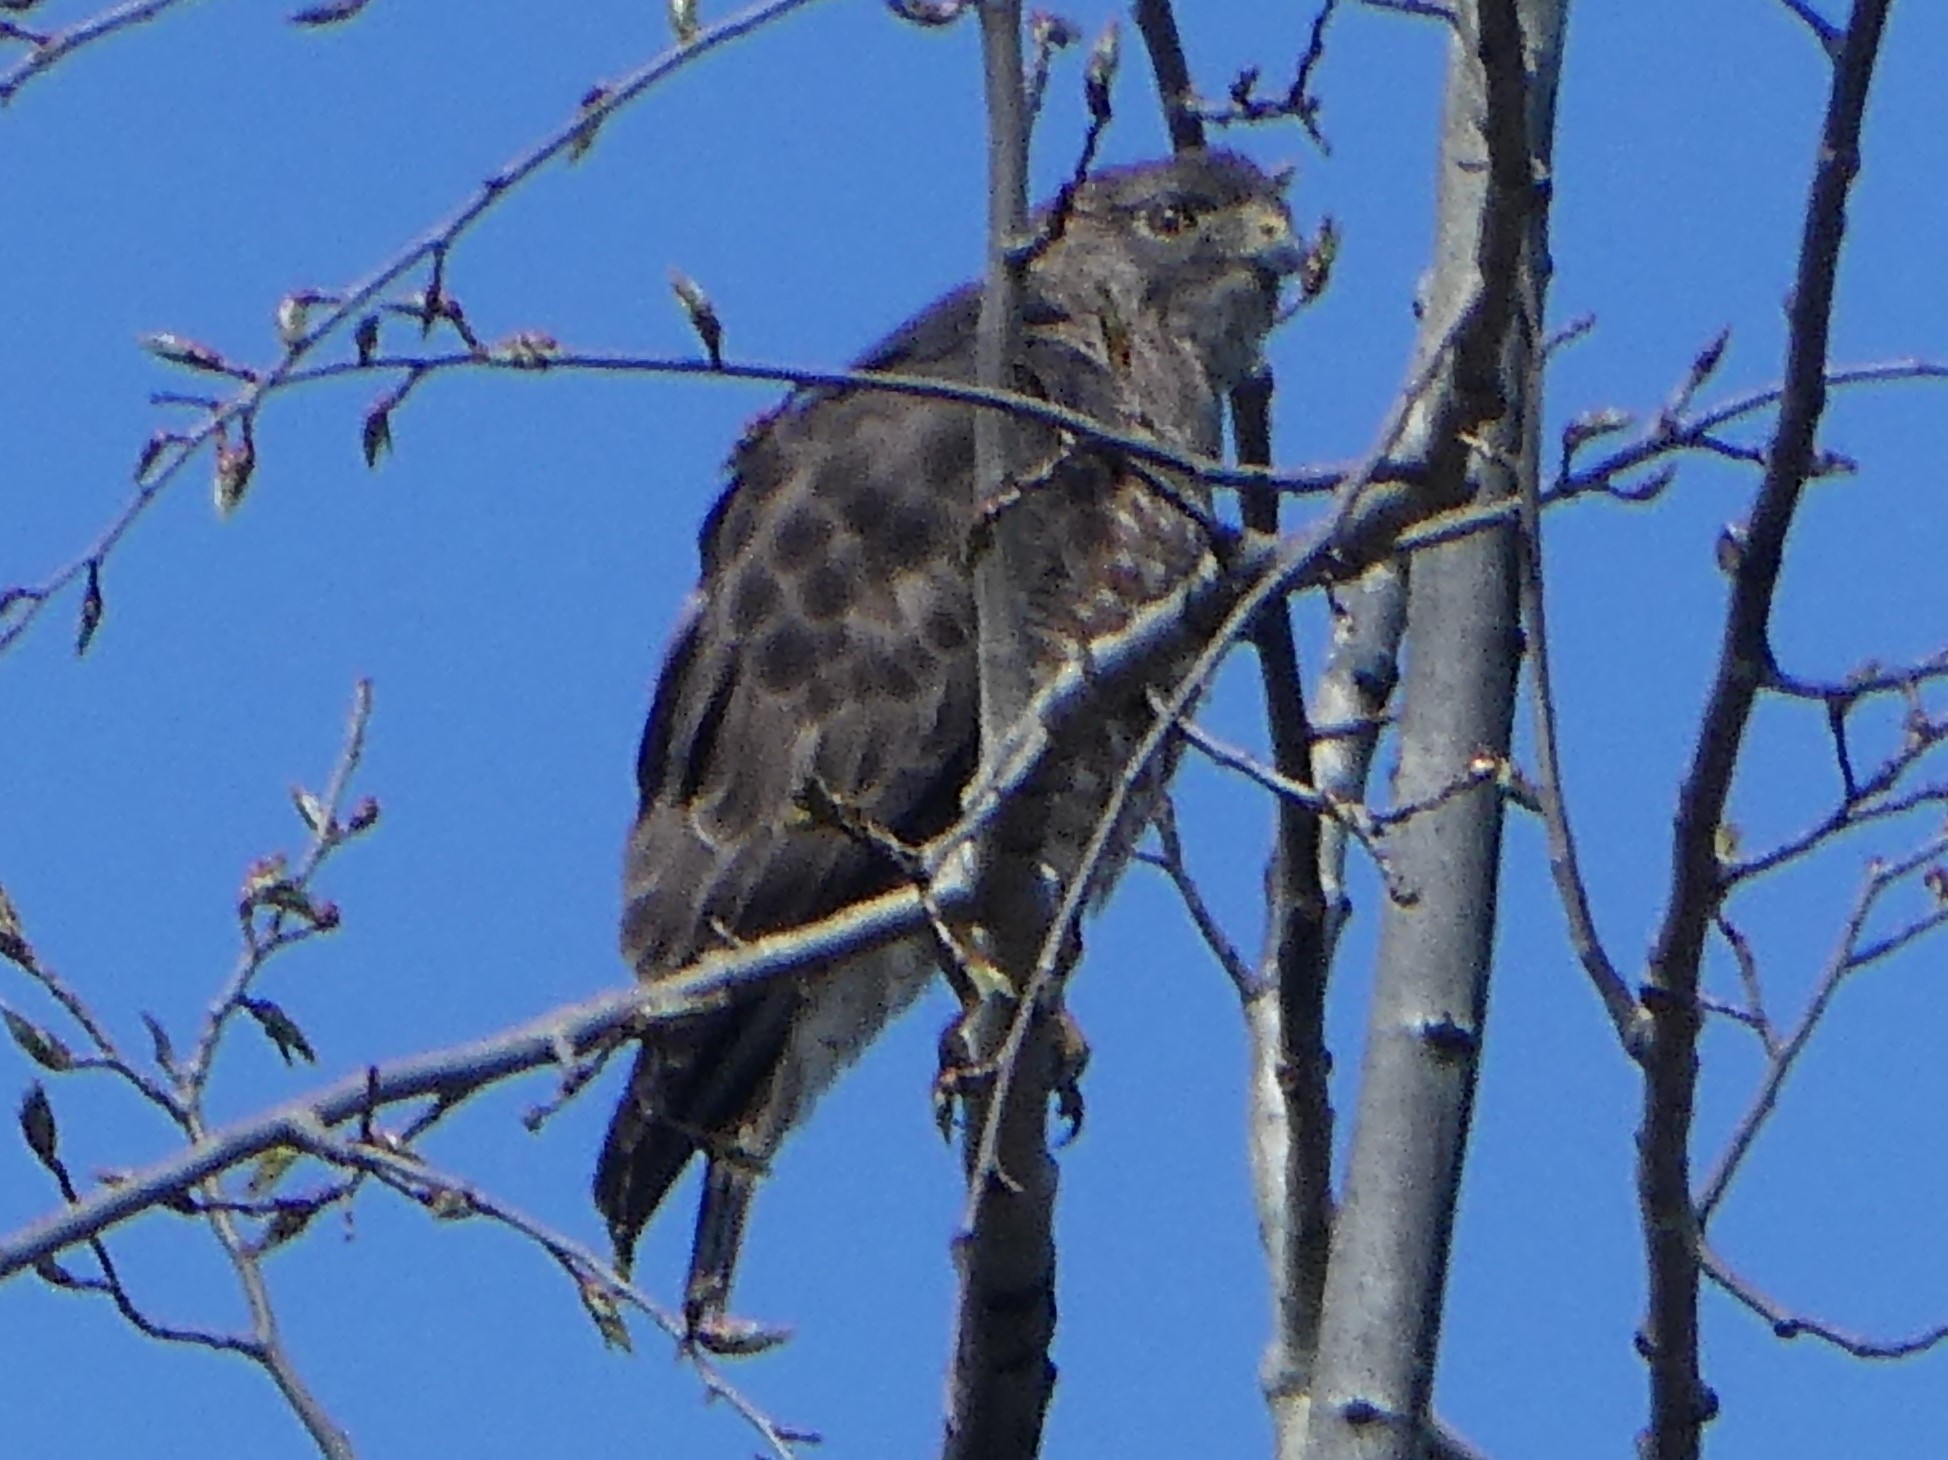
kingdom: Animalia
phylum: Chordata
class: Aves
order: Accipitriformes
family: Accipitridae
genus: Buteo
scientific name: Buteo platypterus
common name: Broad-winged hawk
